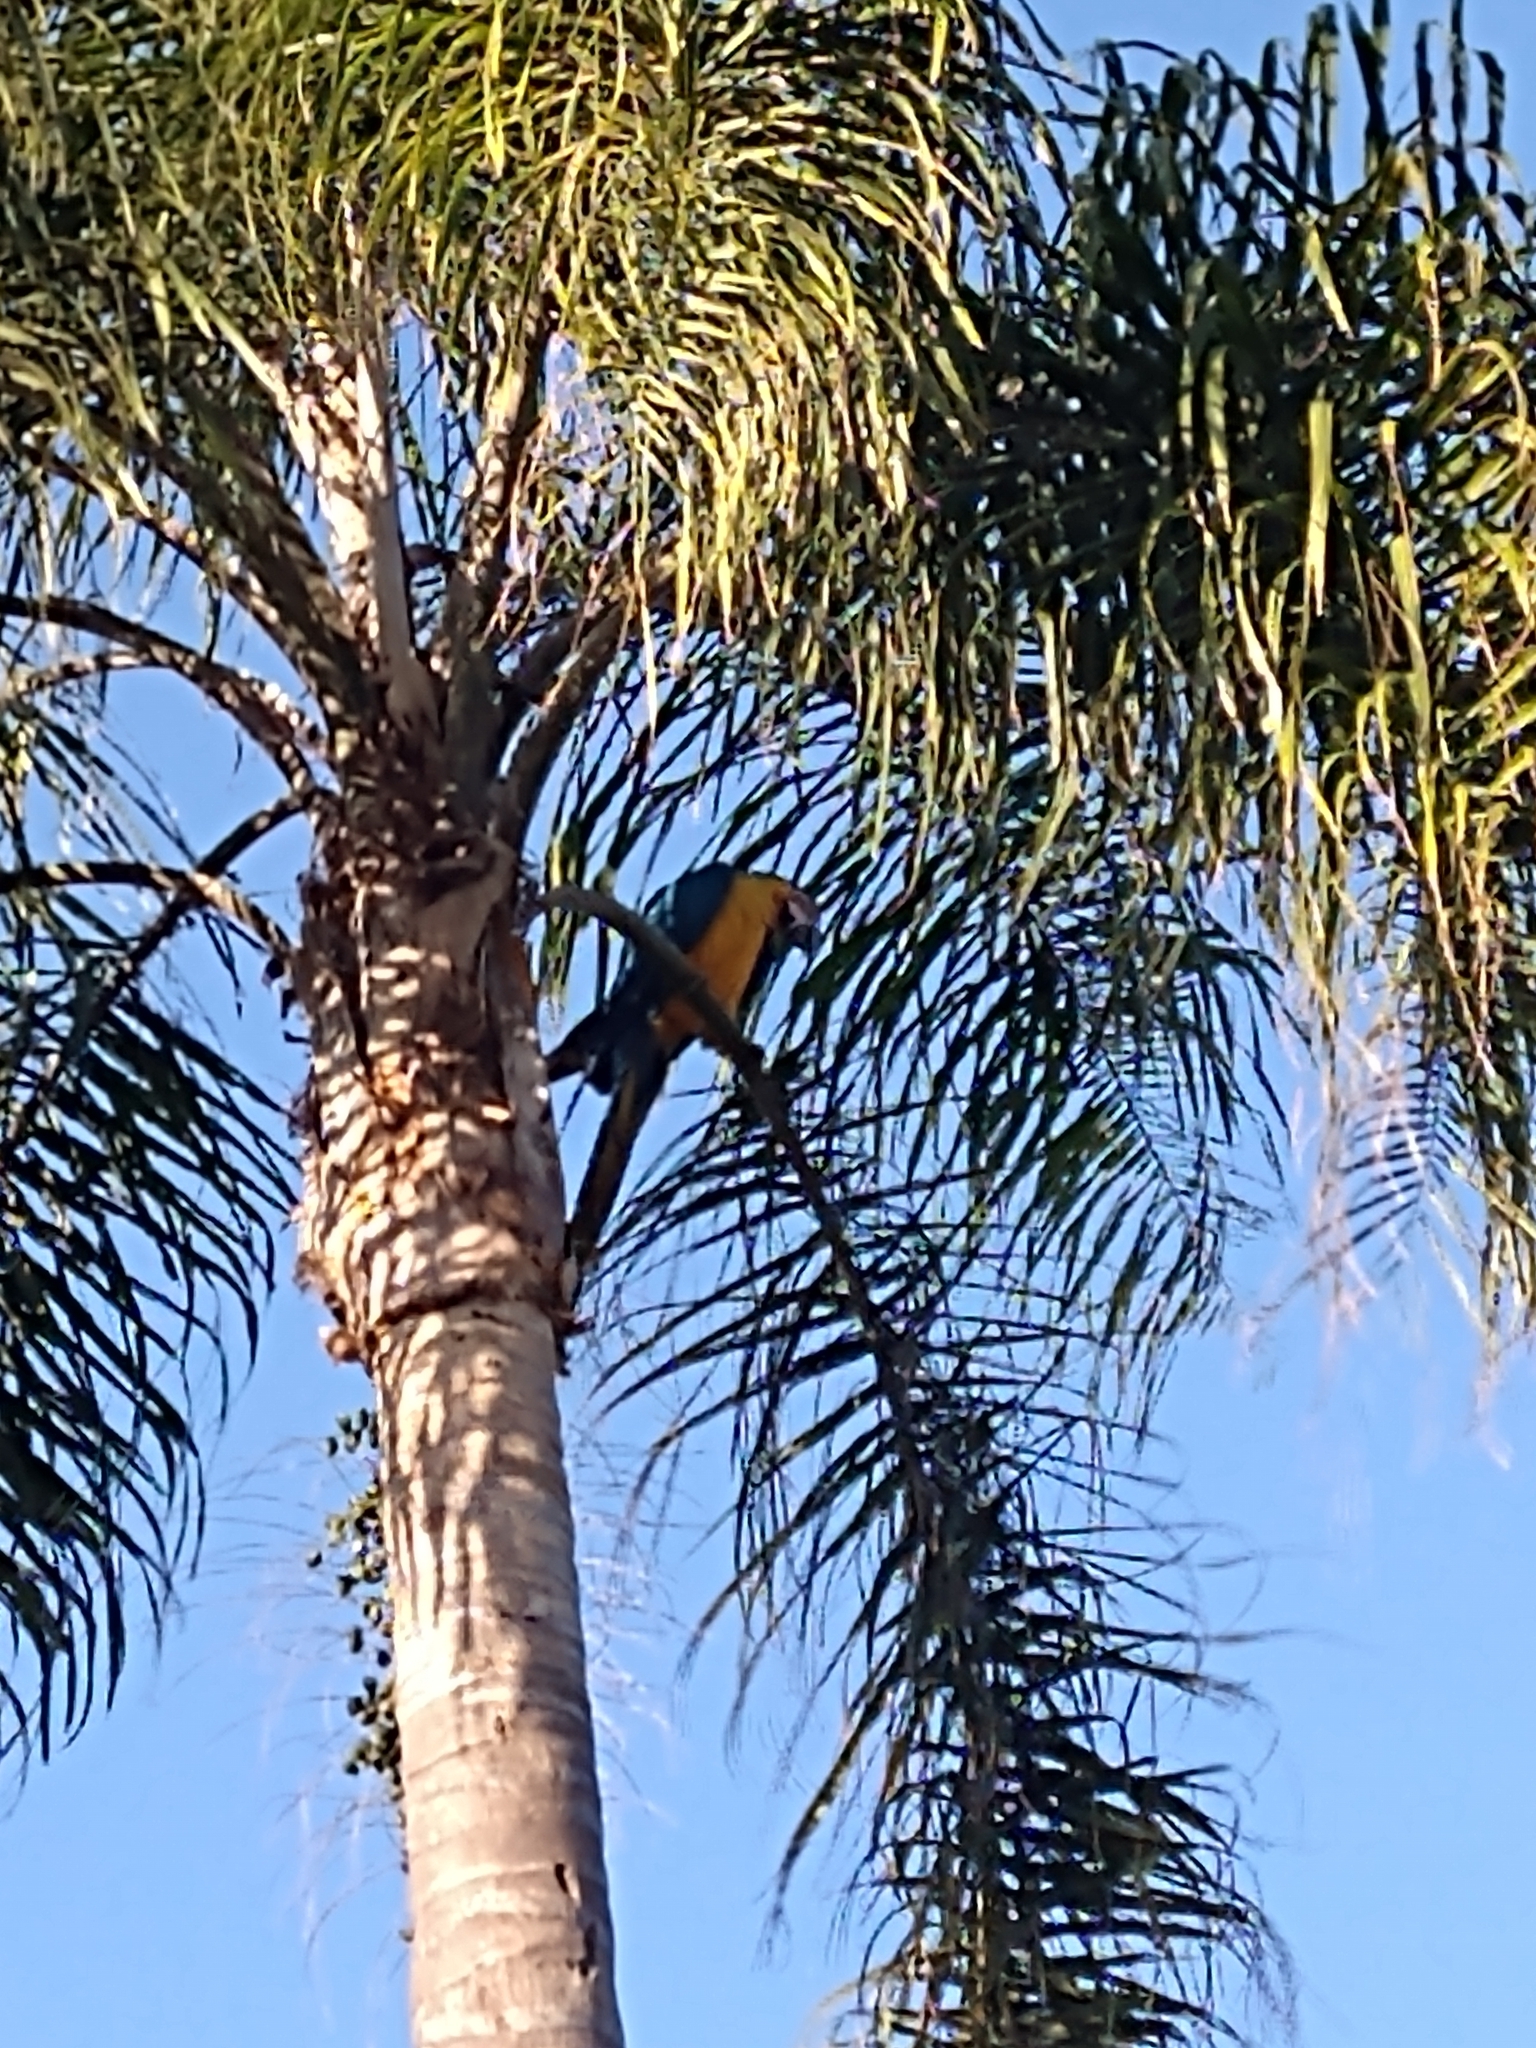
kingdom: Animalia
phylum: Chordata
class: Aves
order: Psittaciformes
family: Psittacidae
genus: Ara
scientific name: Ara ararauna
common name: Blue-and-yellow macaw
